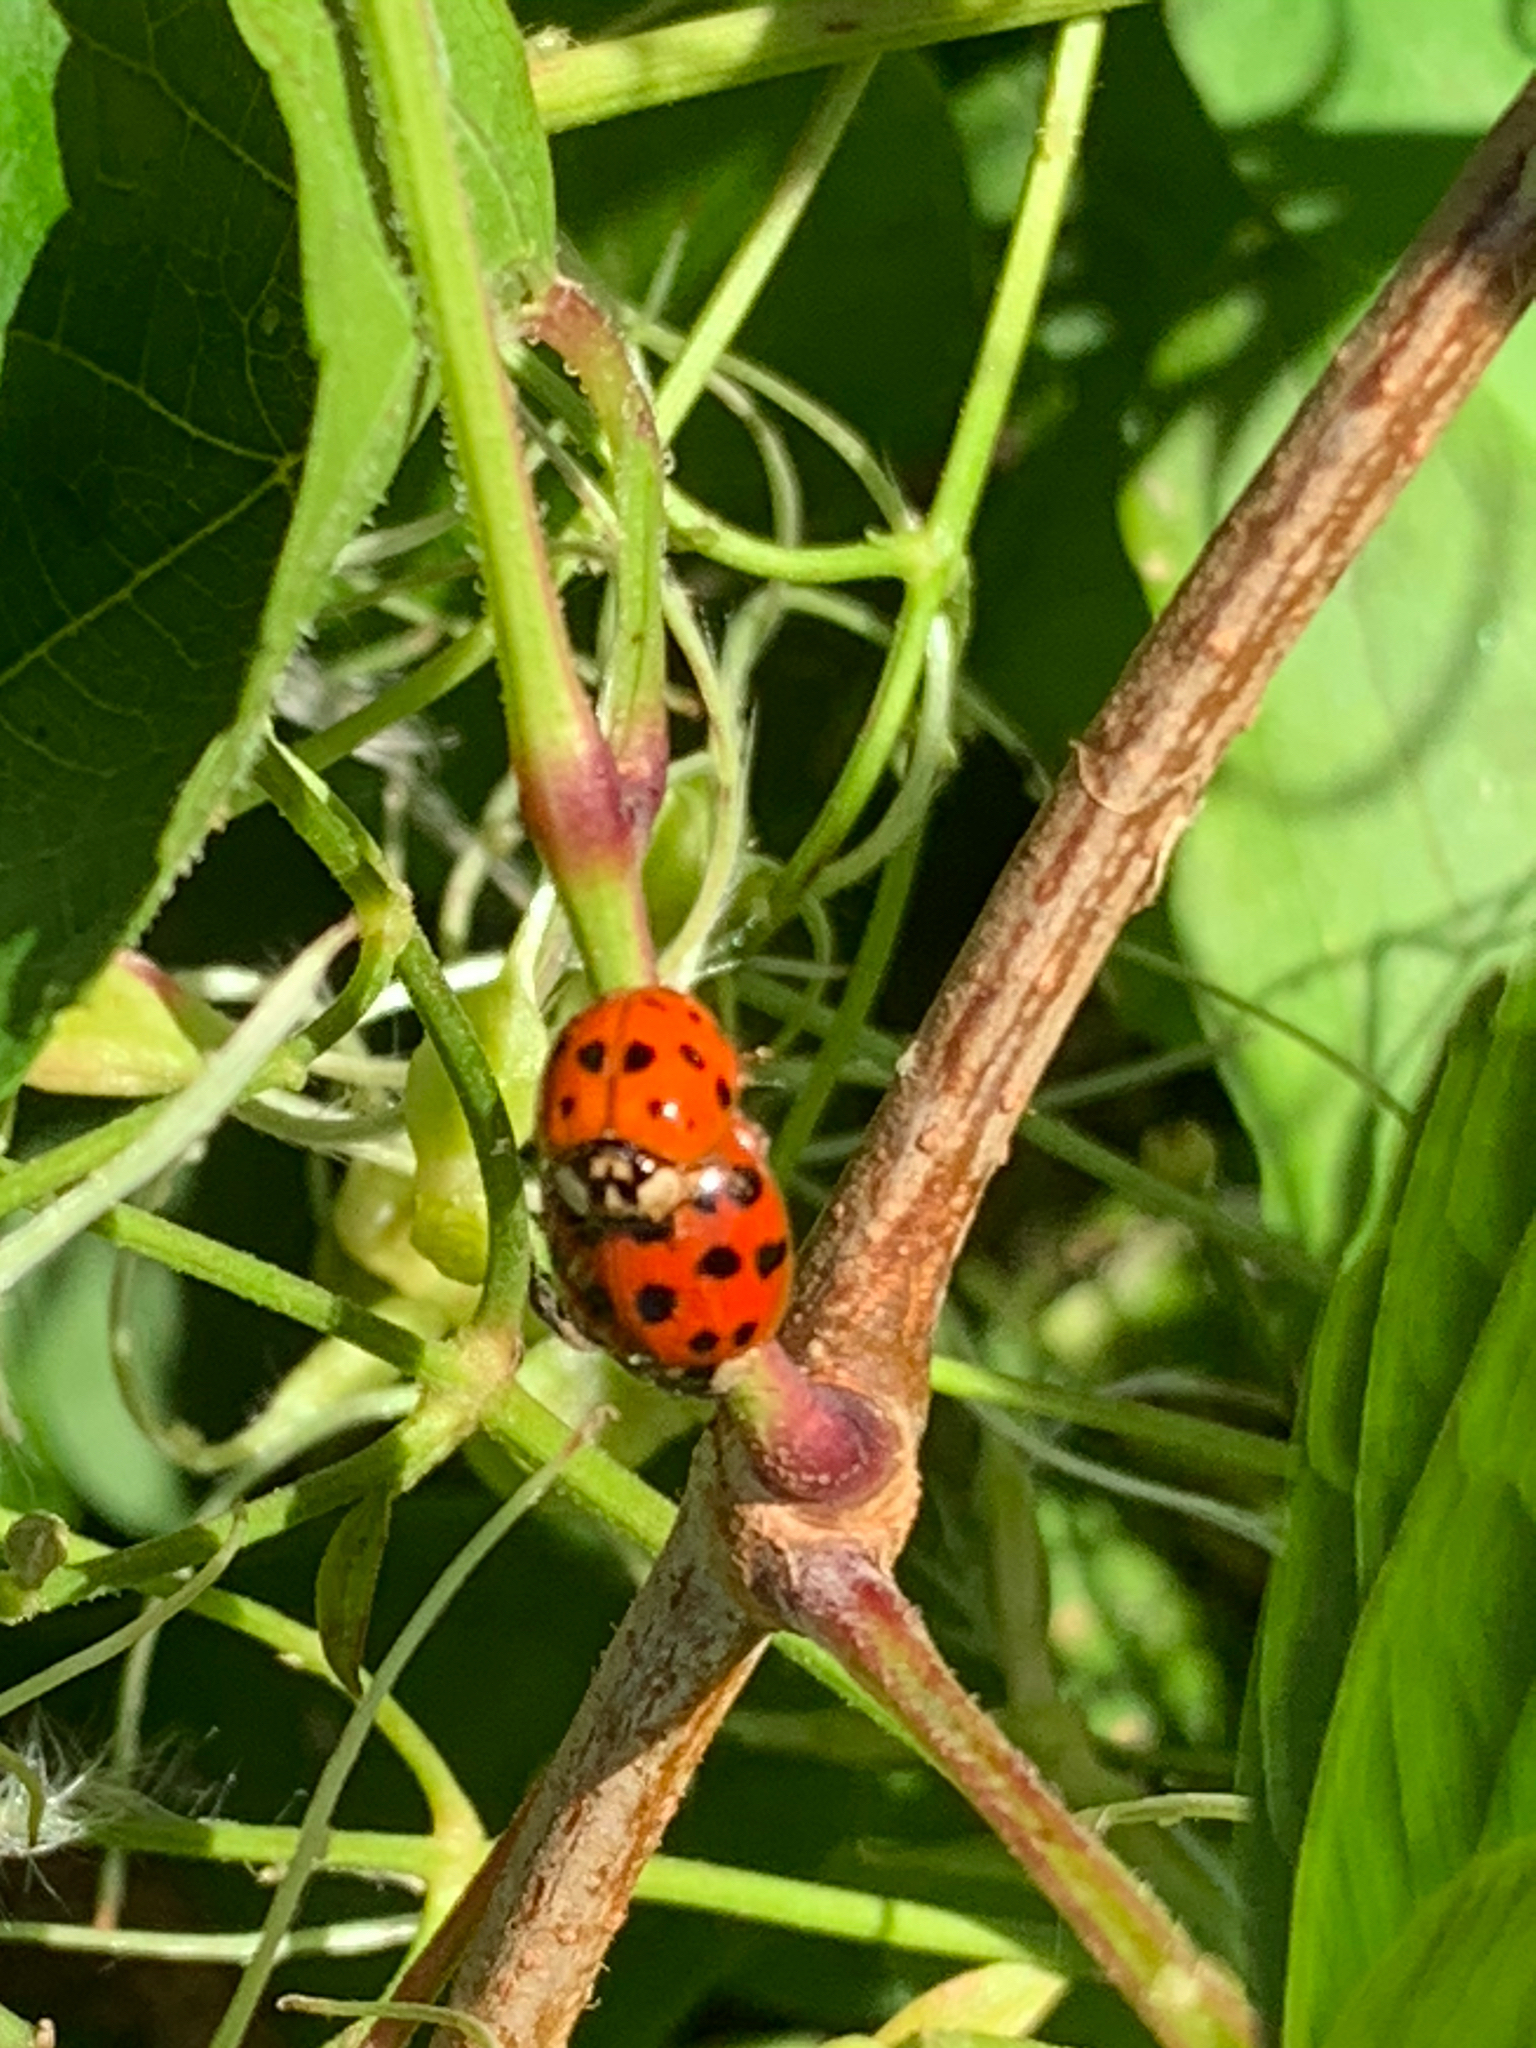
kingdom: Animalia
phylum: Arthropoda
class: Insecta
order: Coleoptera
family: Coccinellidae
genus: Harmonia
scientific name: Harmonia axyridis
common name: Harlequin ladybird
